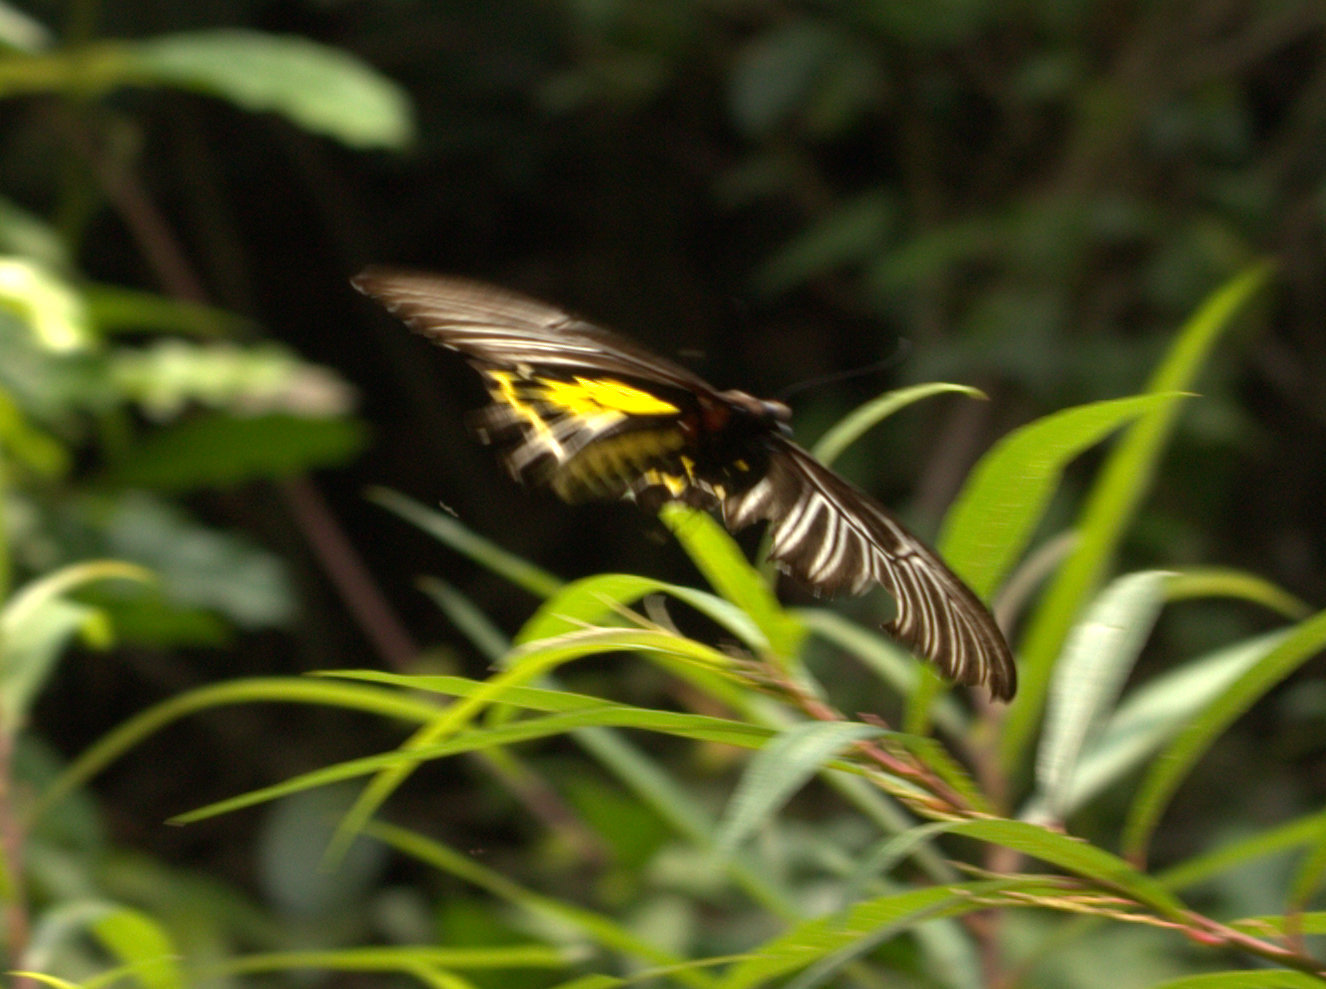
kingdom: Animalia
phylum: Arthropoda
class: Insecta
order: Lepidoptera
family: Papilionidae
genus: Troides
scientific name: Troides minos
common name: Malabar birdwing
